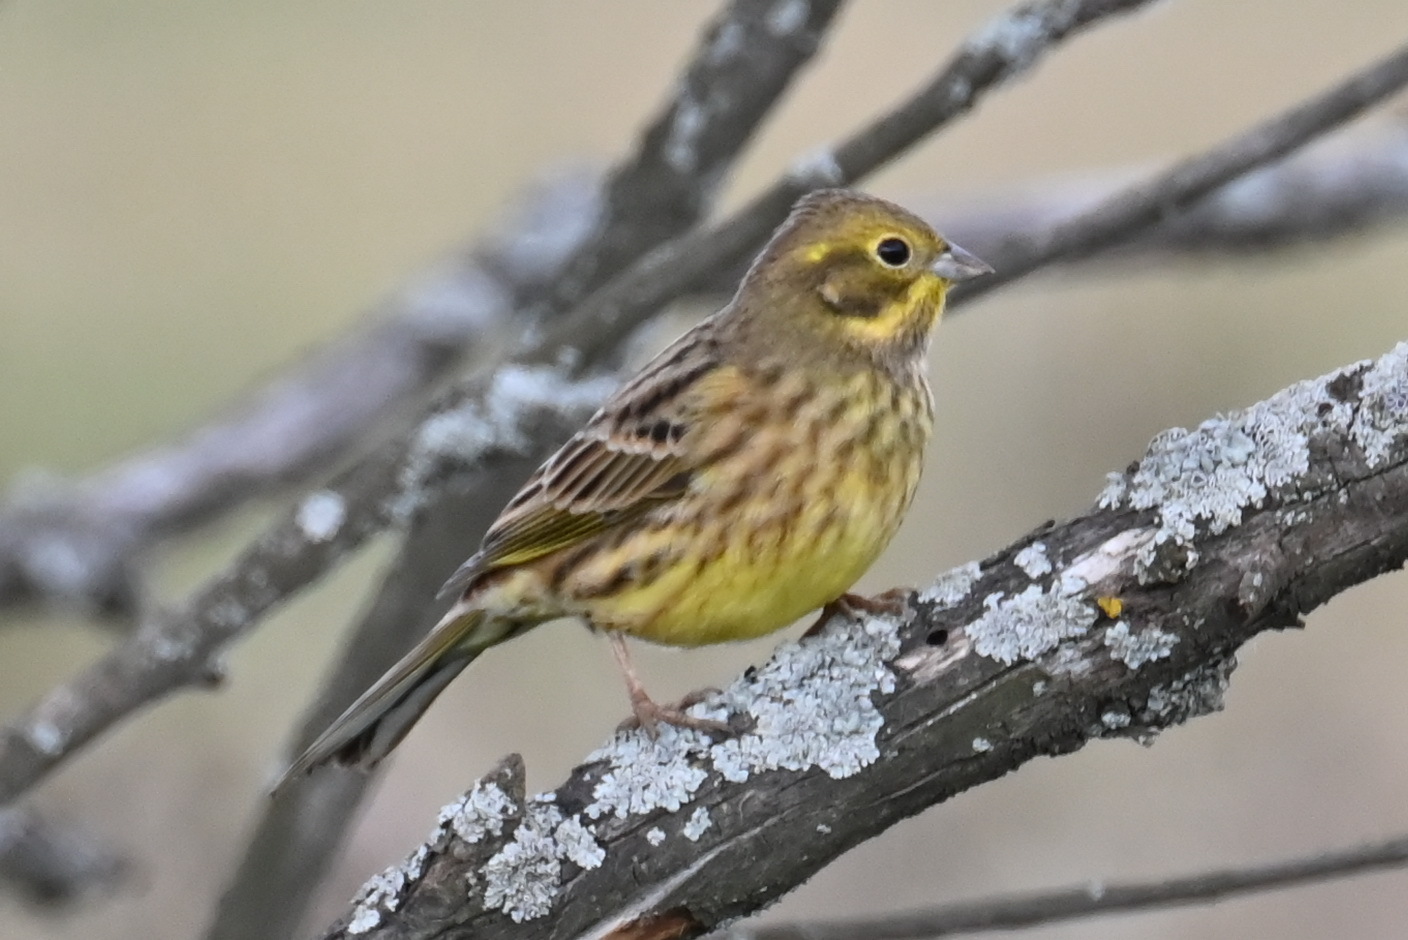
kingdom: Animalia
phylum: Chordata
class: Aves
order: Passeriformes
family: Emberizidae
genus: Emberiza
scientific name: Emberiza citrinella
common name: Yellowhammer
